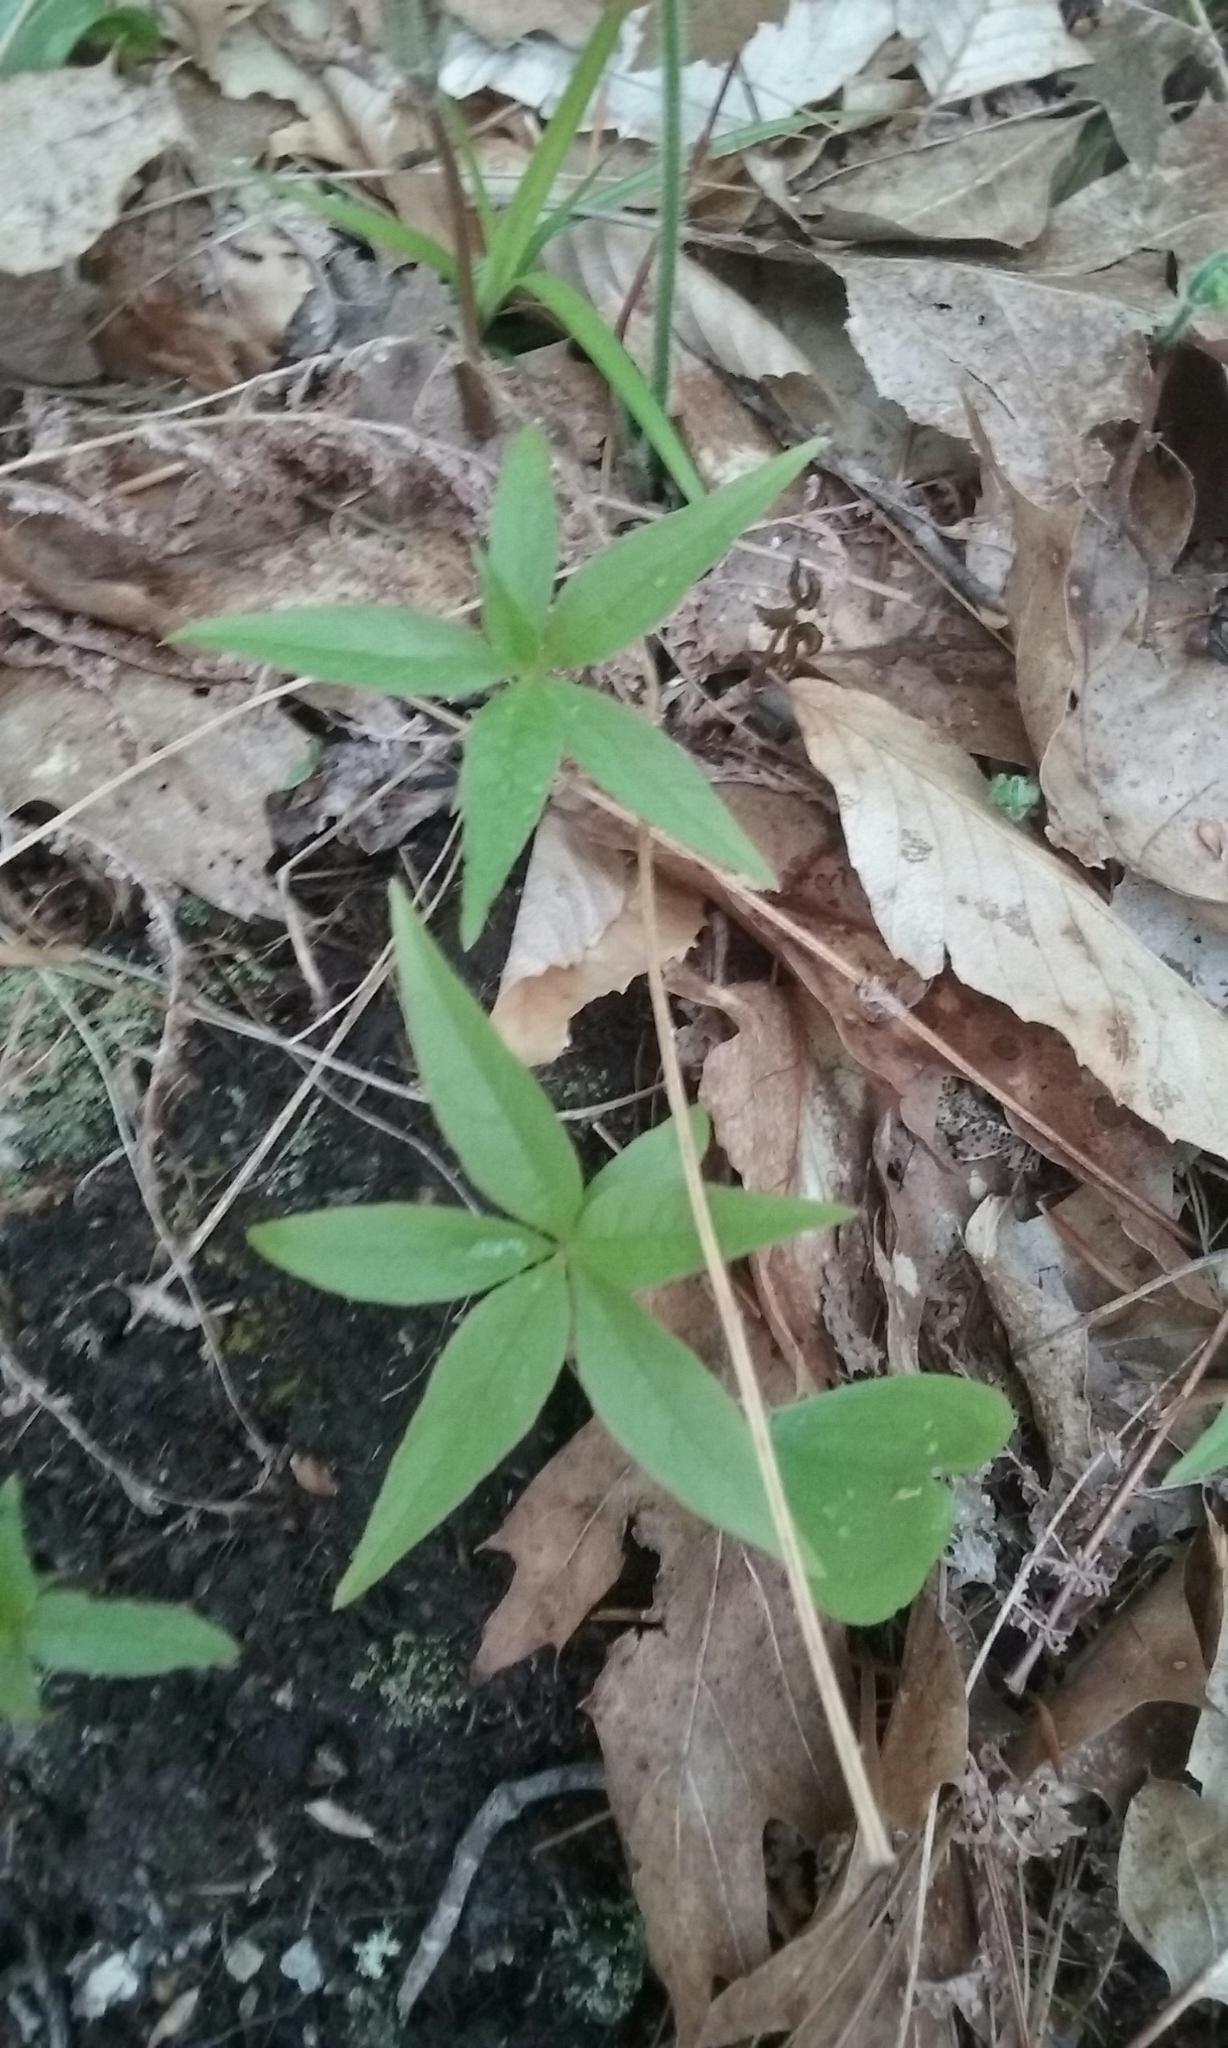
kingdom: Plantae
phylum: Tracheophyta
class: Magnoliopsida
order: Ericales
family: Primulaceae
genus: Lysimachia
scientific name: Lysimachia borealis
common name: American starflower
